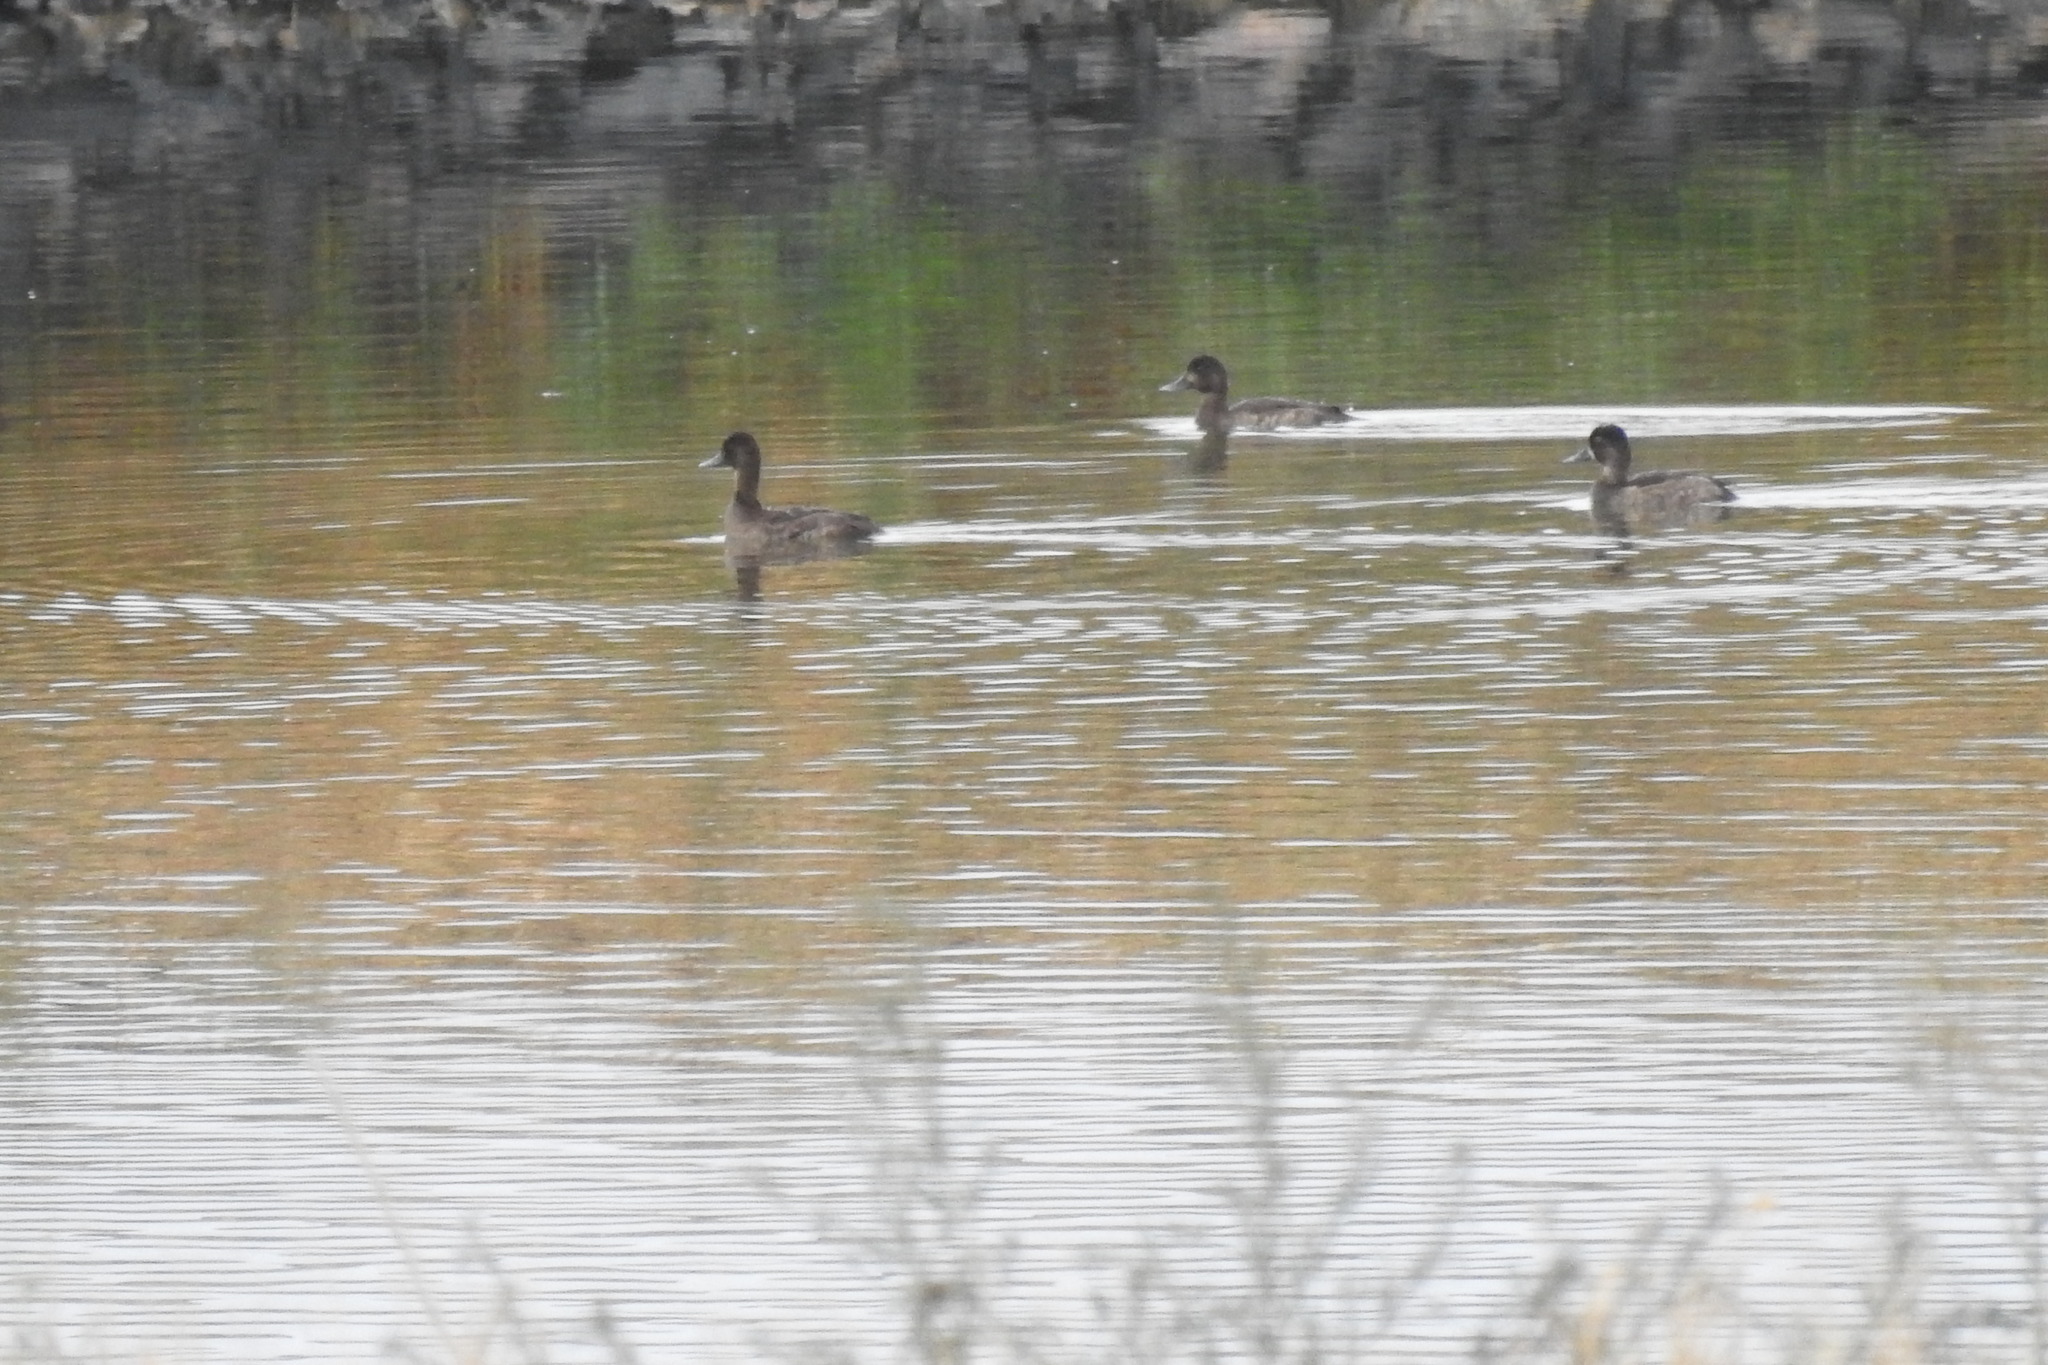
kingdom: Animalia
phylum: Chordata
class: Aves
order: Anseriformes
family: Anatidae
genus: Aythya
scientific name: Aythya affinis
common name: Lesser scaup
